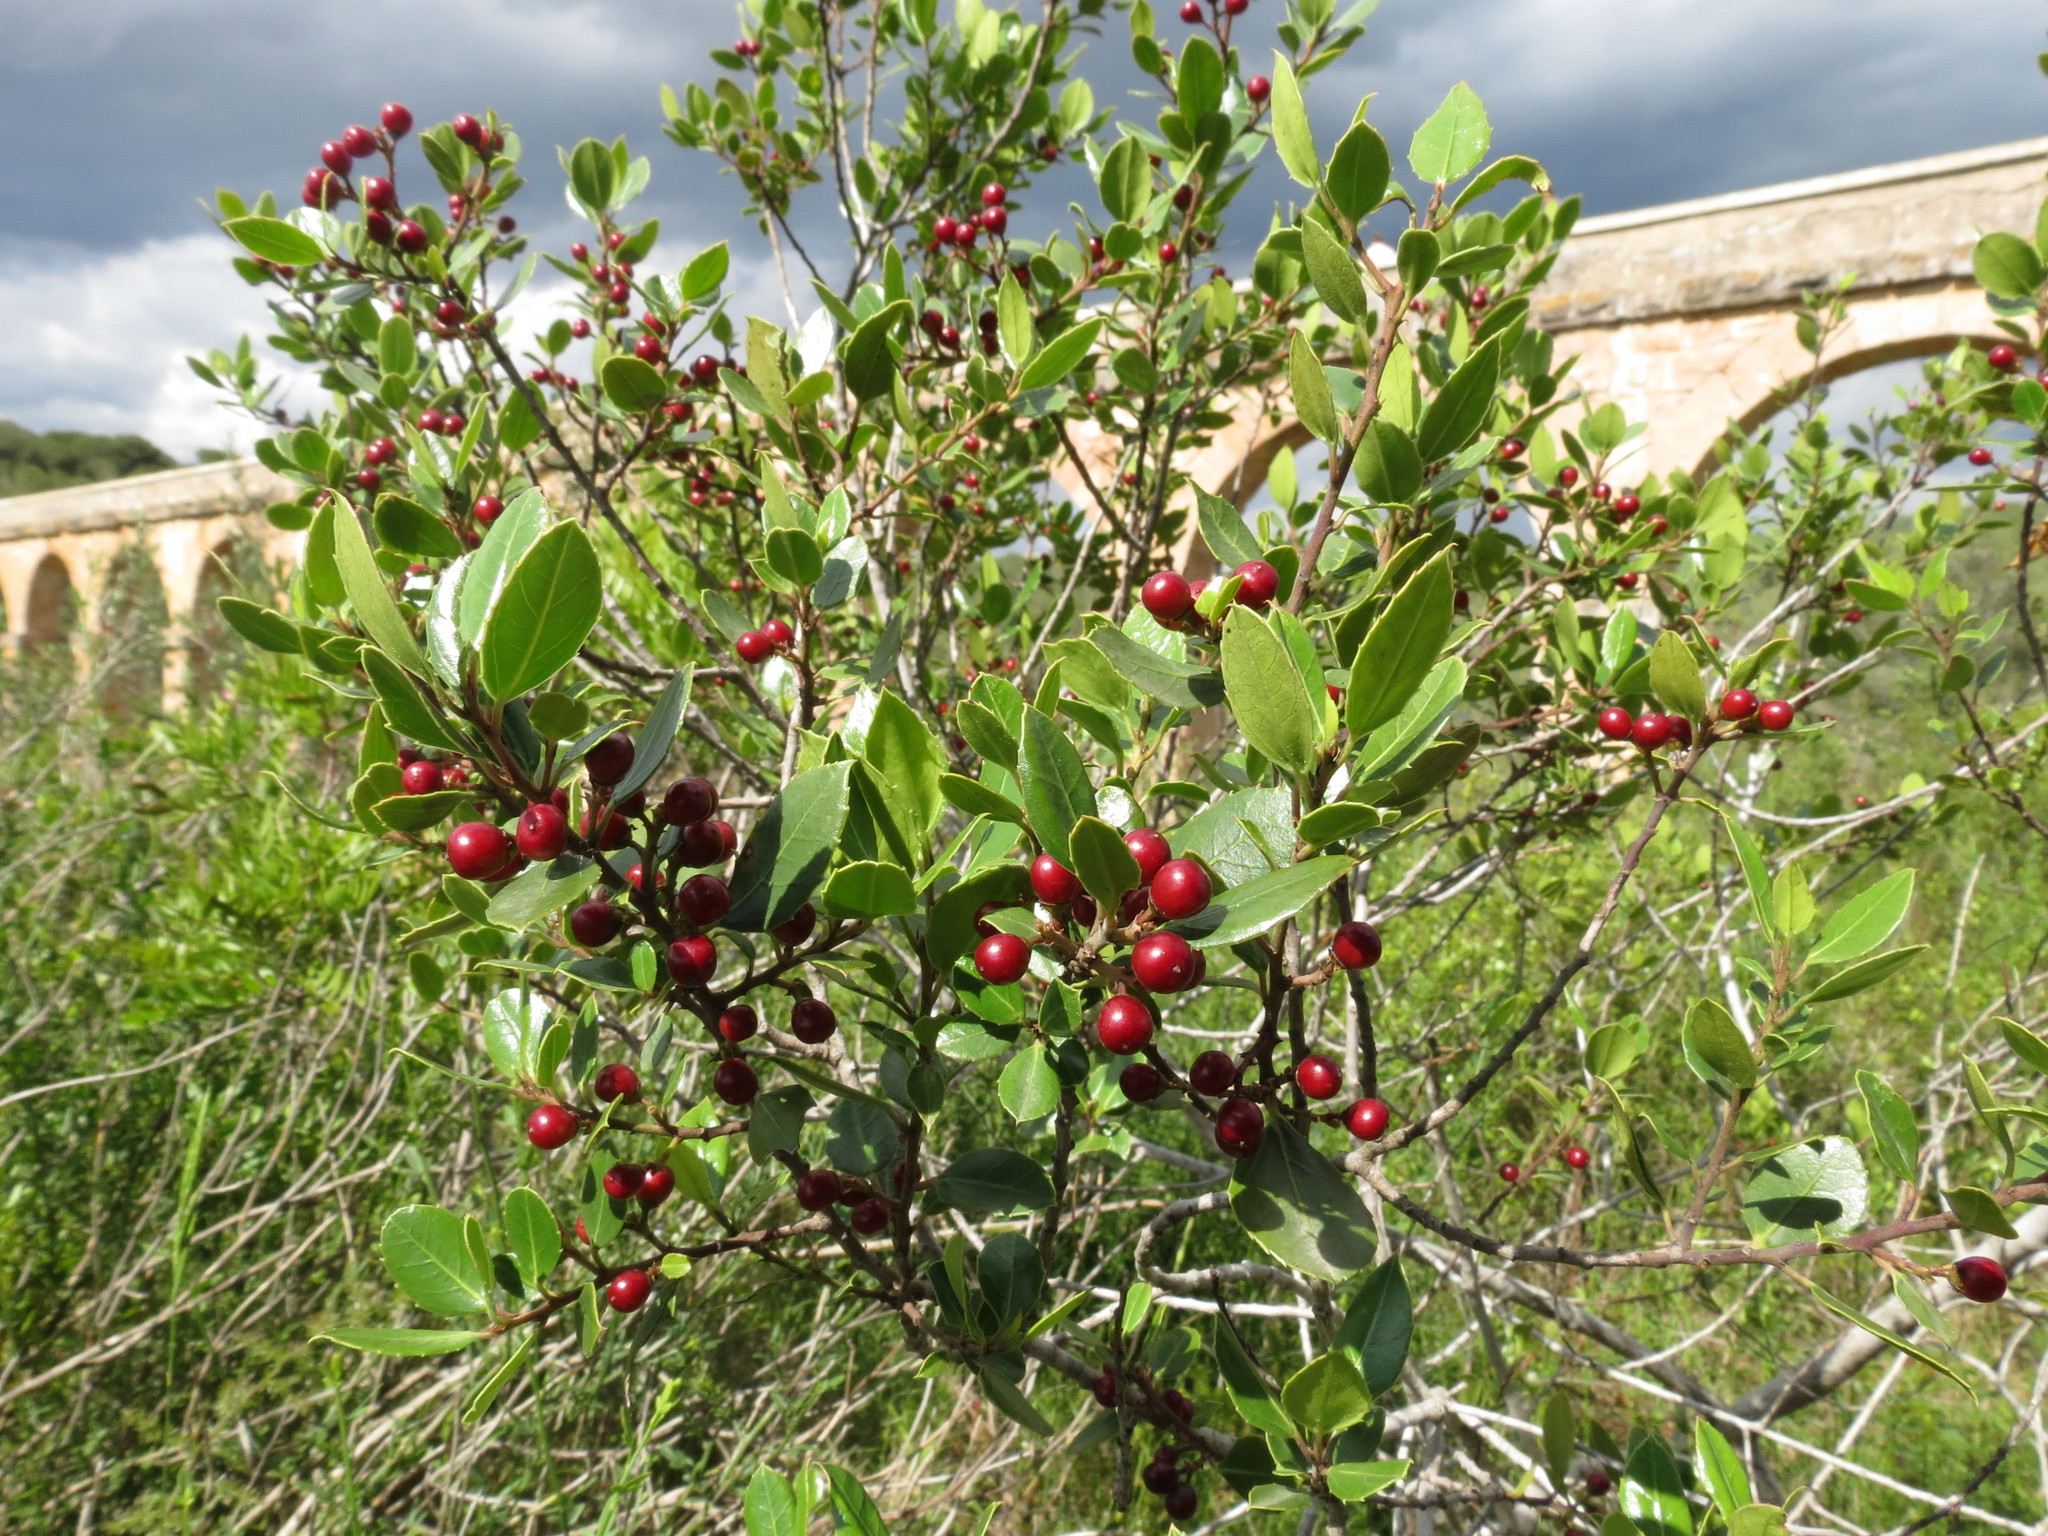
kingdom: Plantae
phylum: Tracheophyta
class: Magnoliopsida
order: Rosales
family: Rhamnaceae
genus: Rhamnus
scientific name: Rhamnus alaternus
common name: Mediterranean buckthorn
